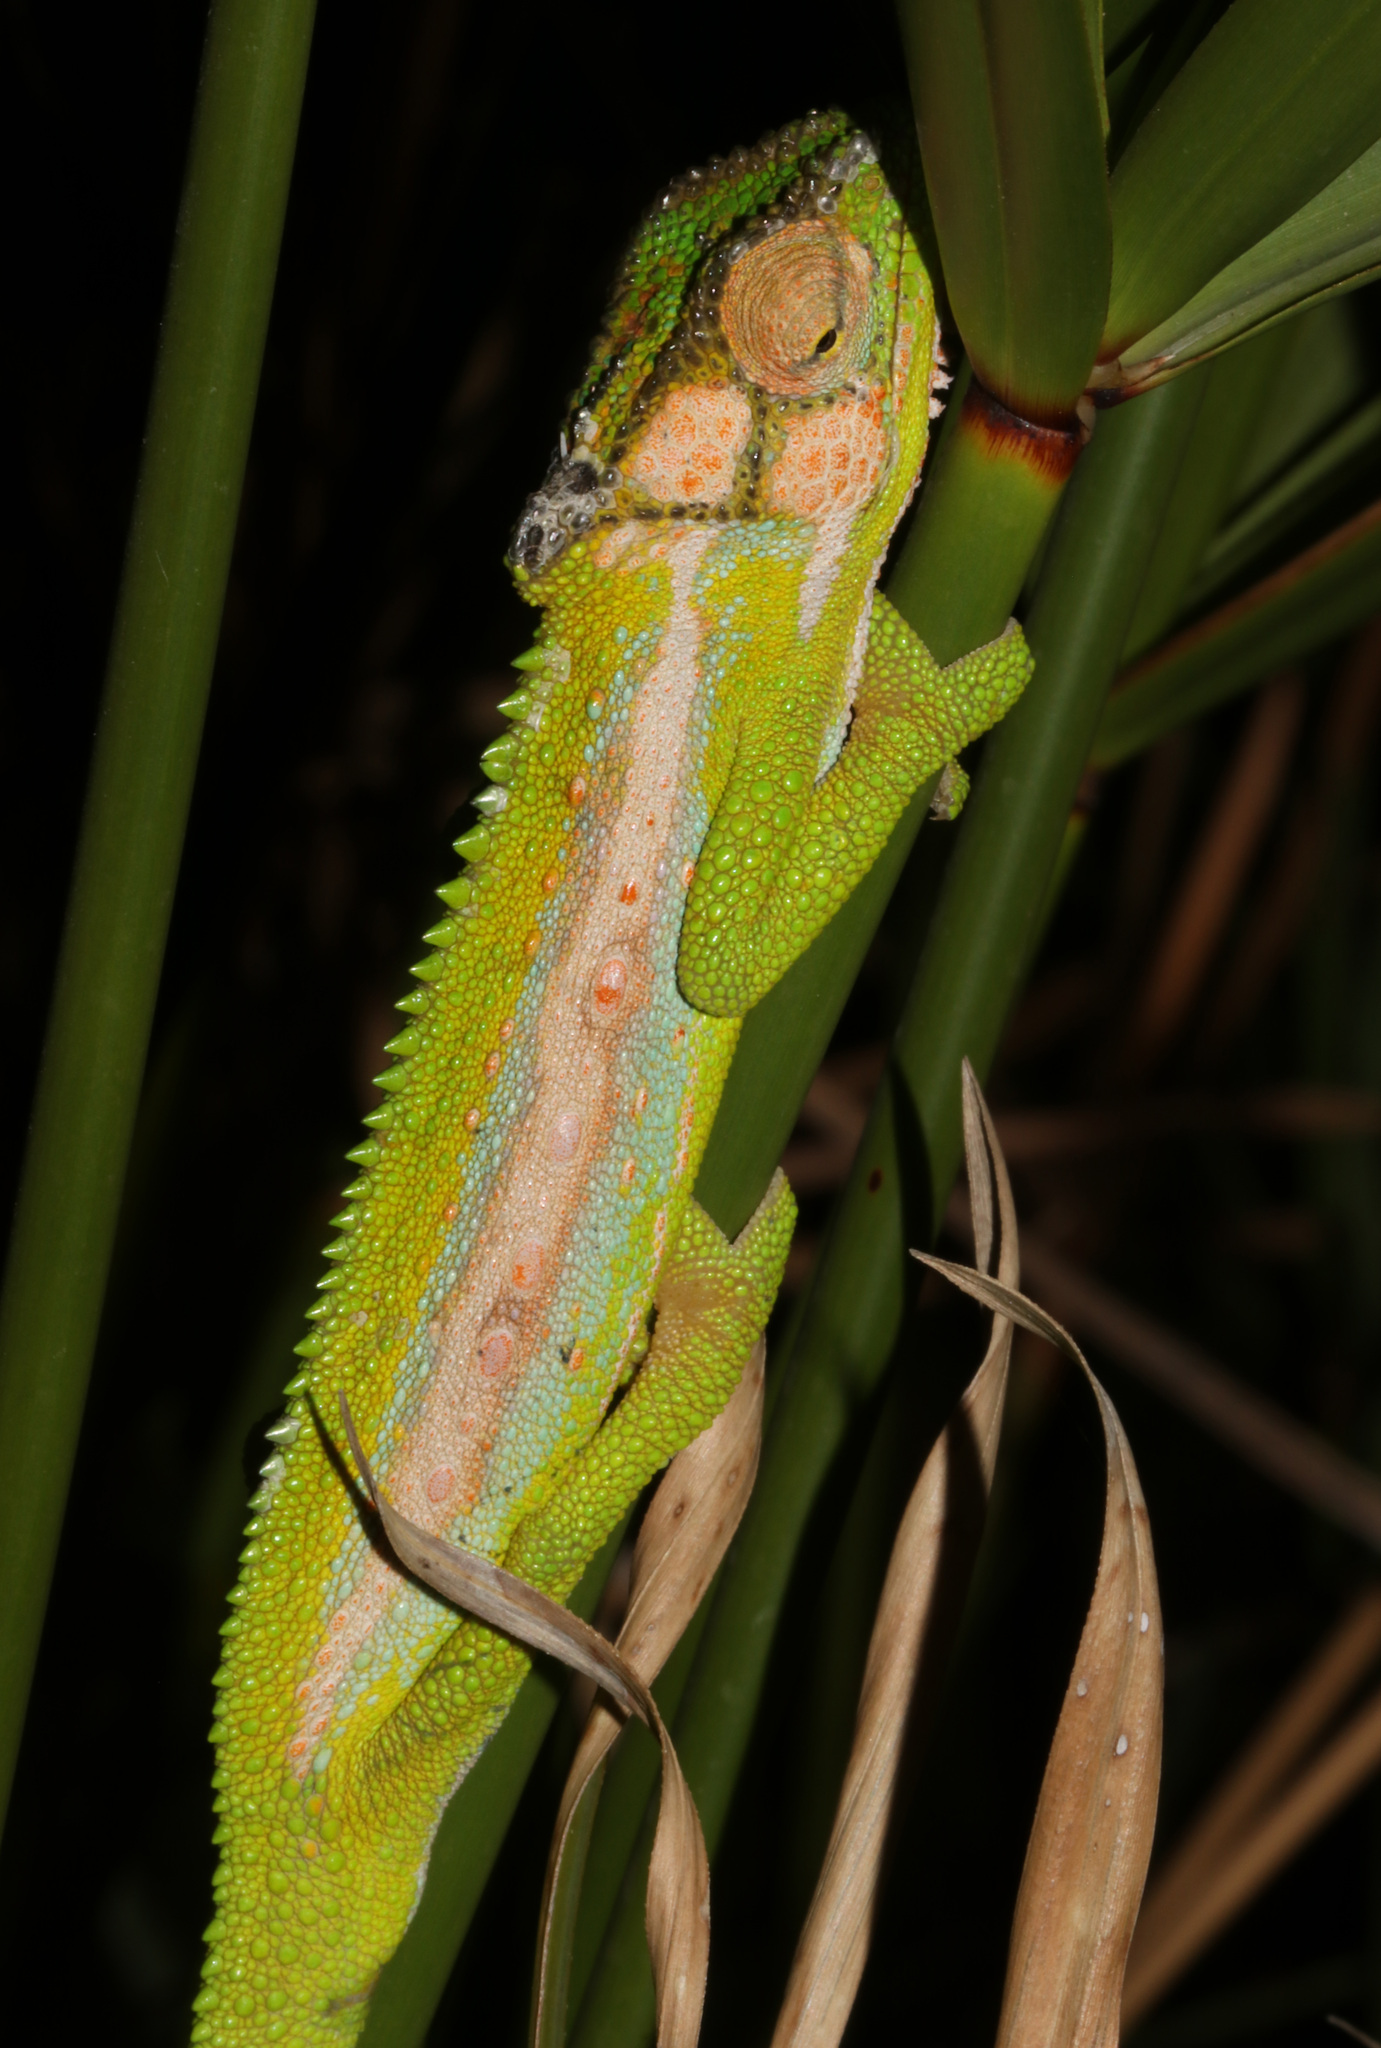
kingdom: Animalia
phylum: Chordata
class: Squamata
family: Chamaeleonidae
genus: Bradypodion
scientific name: Bradypodion pumilum
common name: Cape dwarf chameleon
